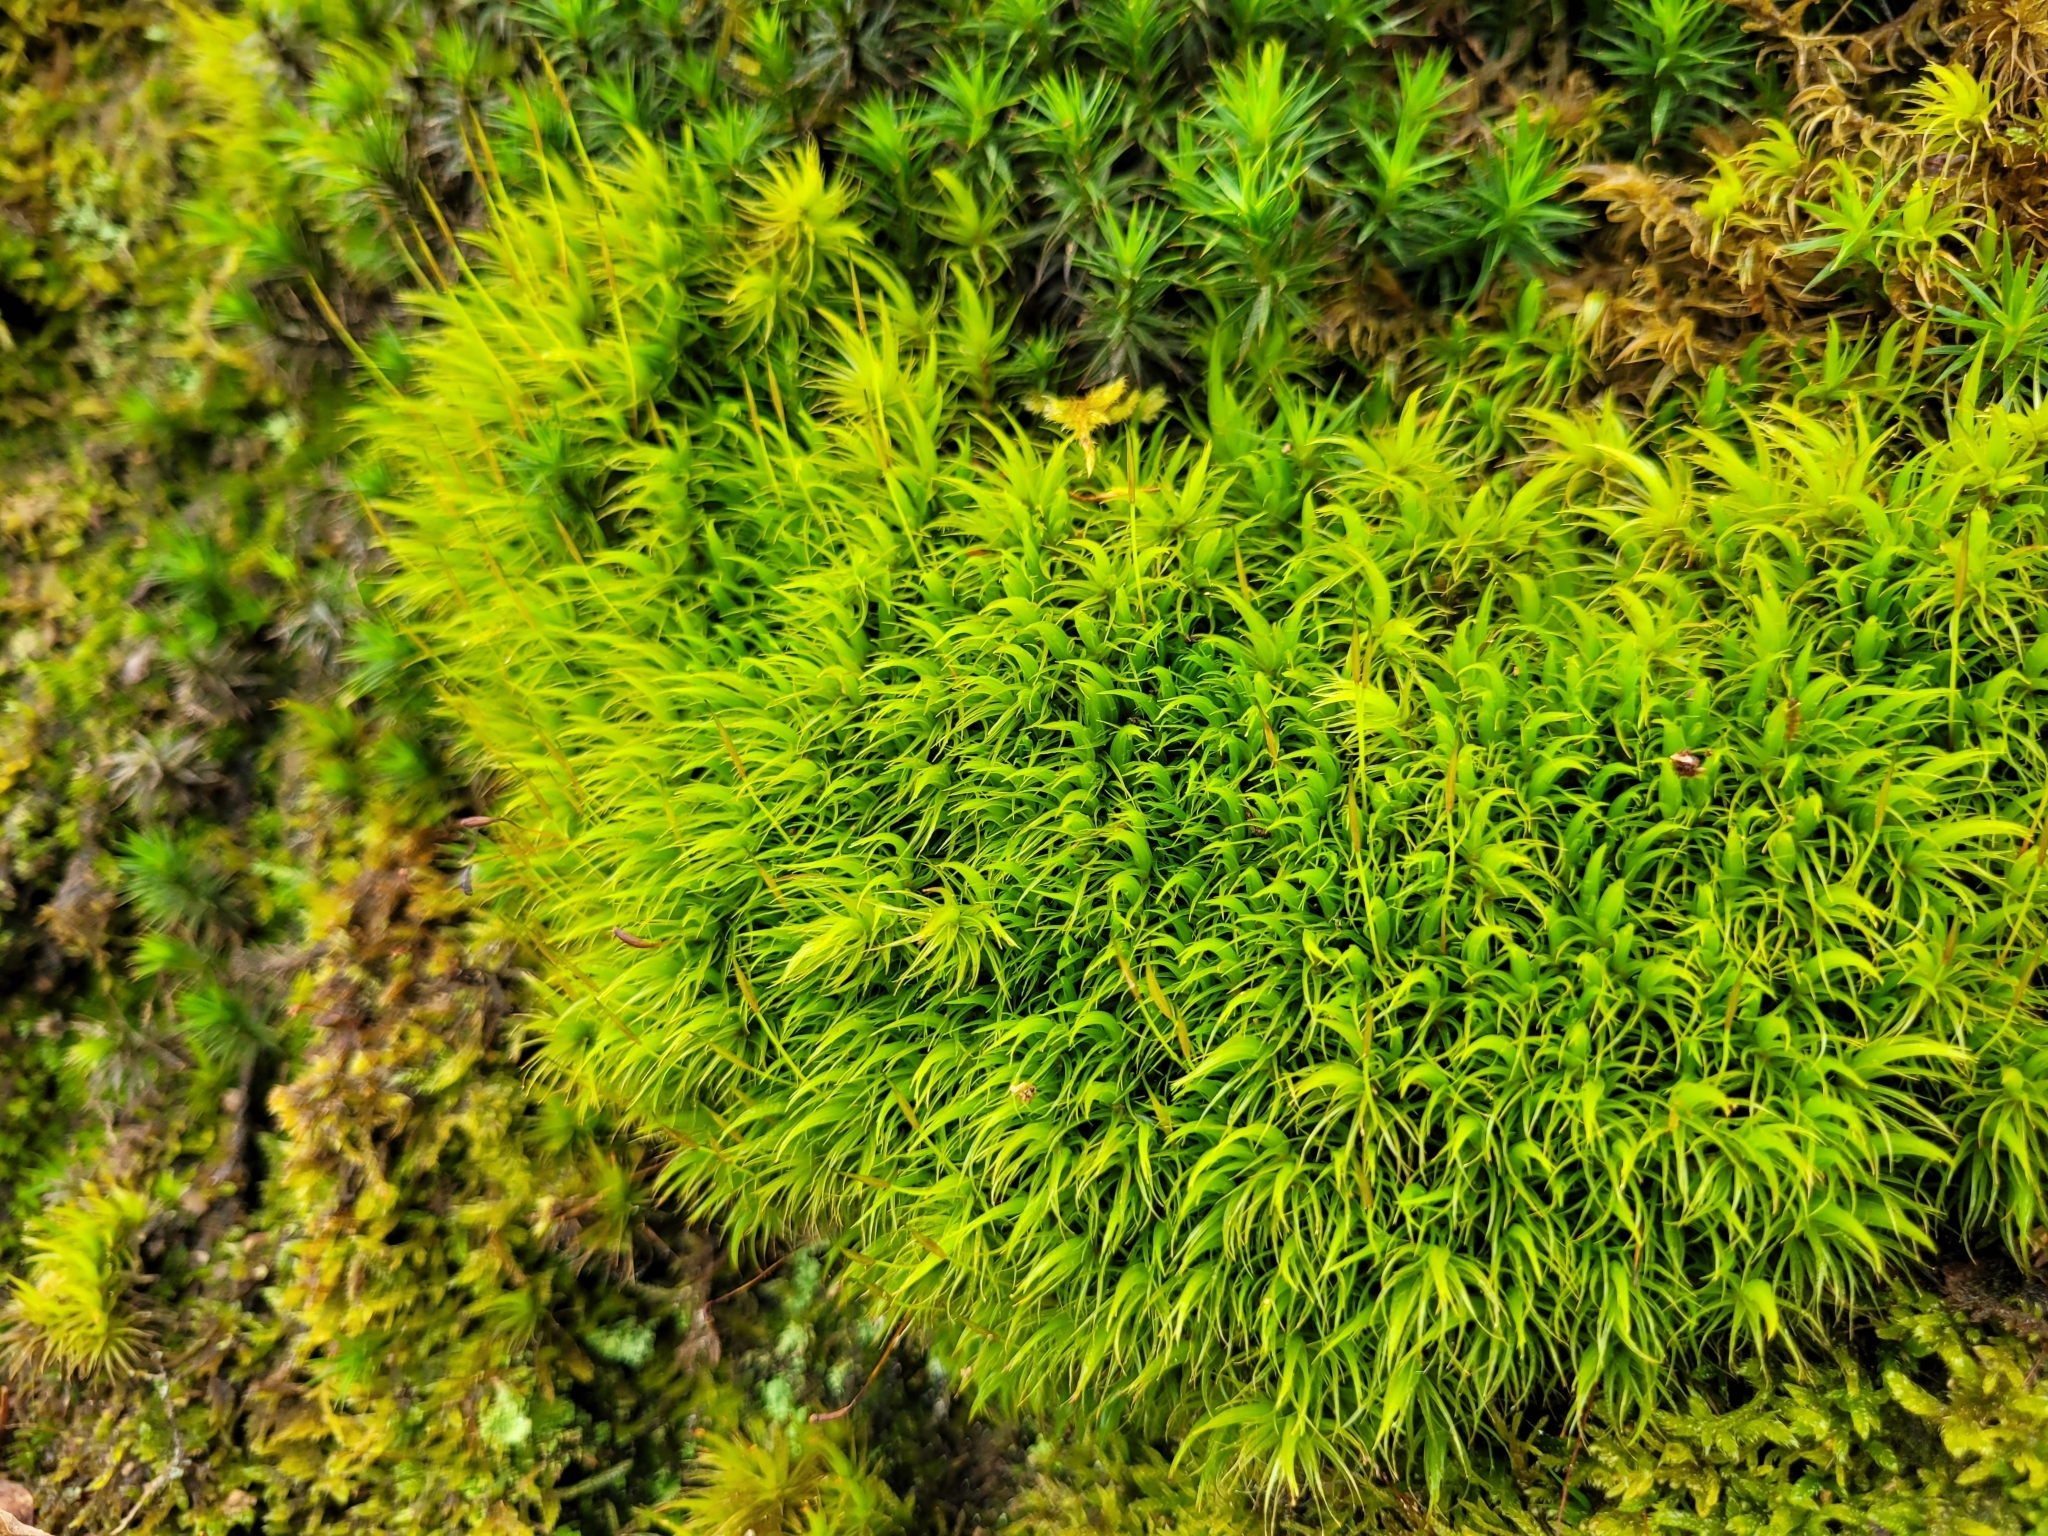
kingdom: Plantae
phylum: Bryophyta
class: Bryopsida
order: Dicranales
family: Dicranaceae
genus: Dicranum
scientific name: Dicranum scoparium
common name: Broom fork-moss
